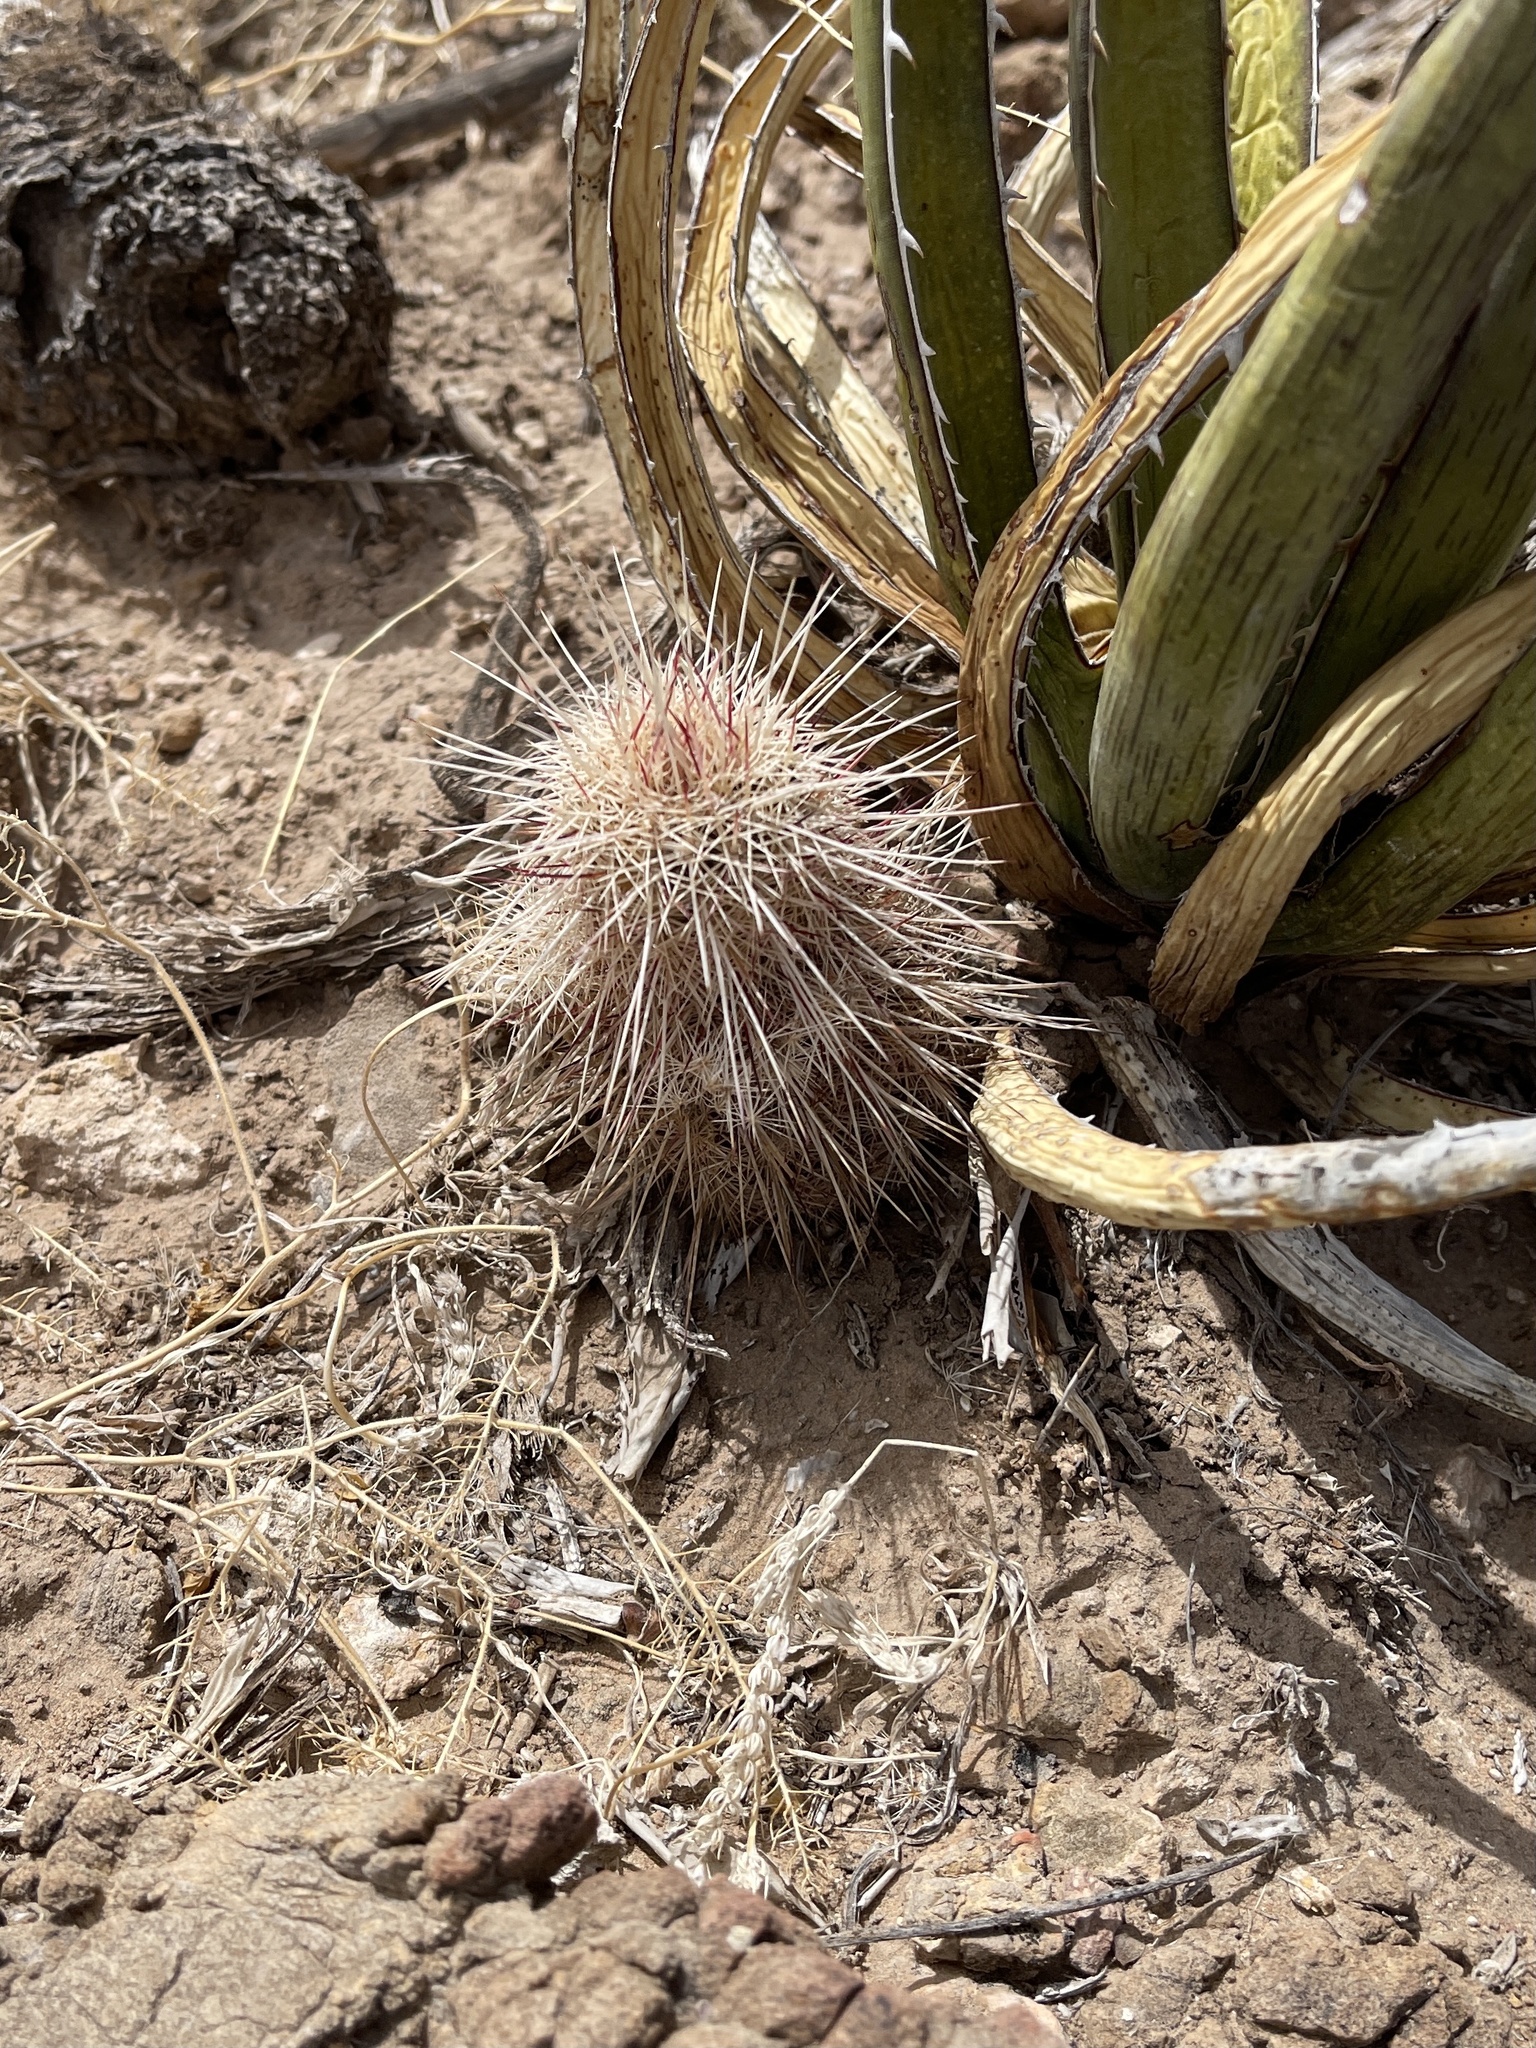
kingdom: Plantae
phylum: Tracheophyta
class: Magnoliopsida
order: Caryophyllales
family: Cactaceae
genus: Echinocereus
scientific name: Echinocereus viridiflorus
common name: Nylon hedgehog cactus
